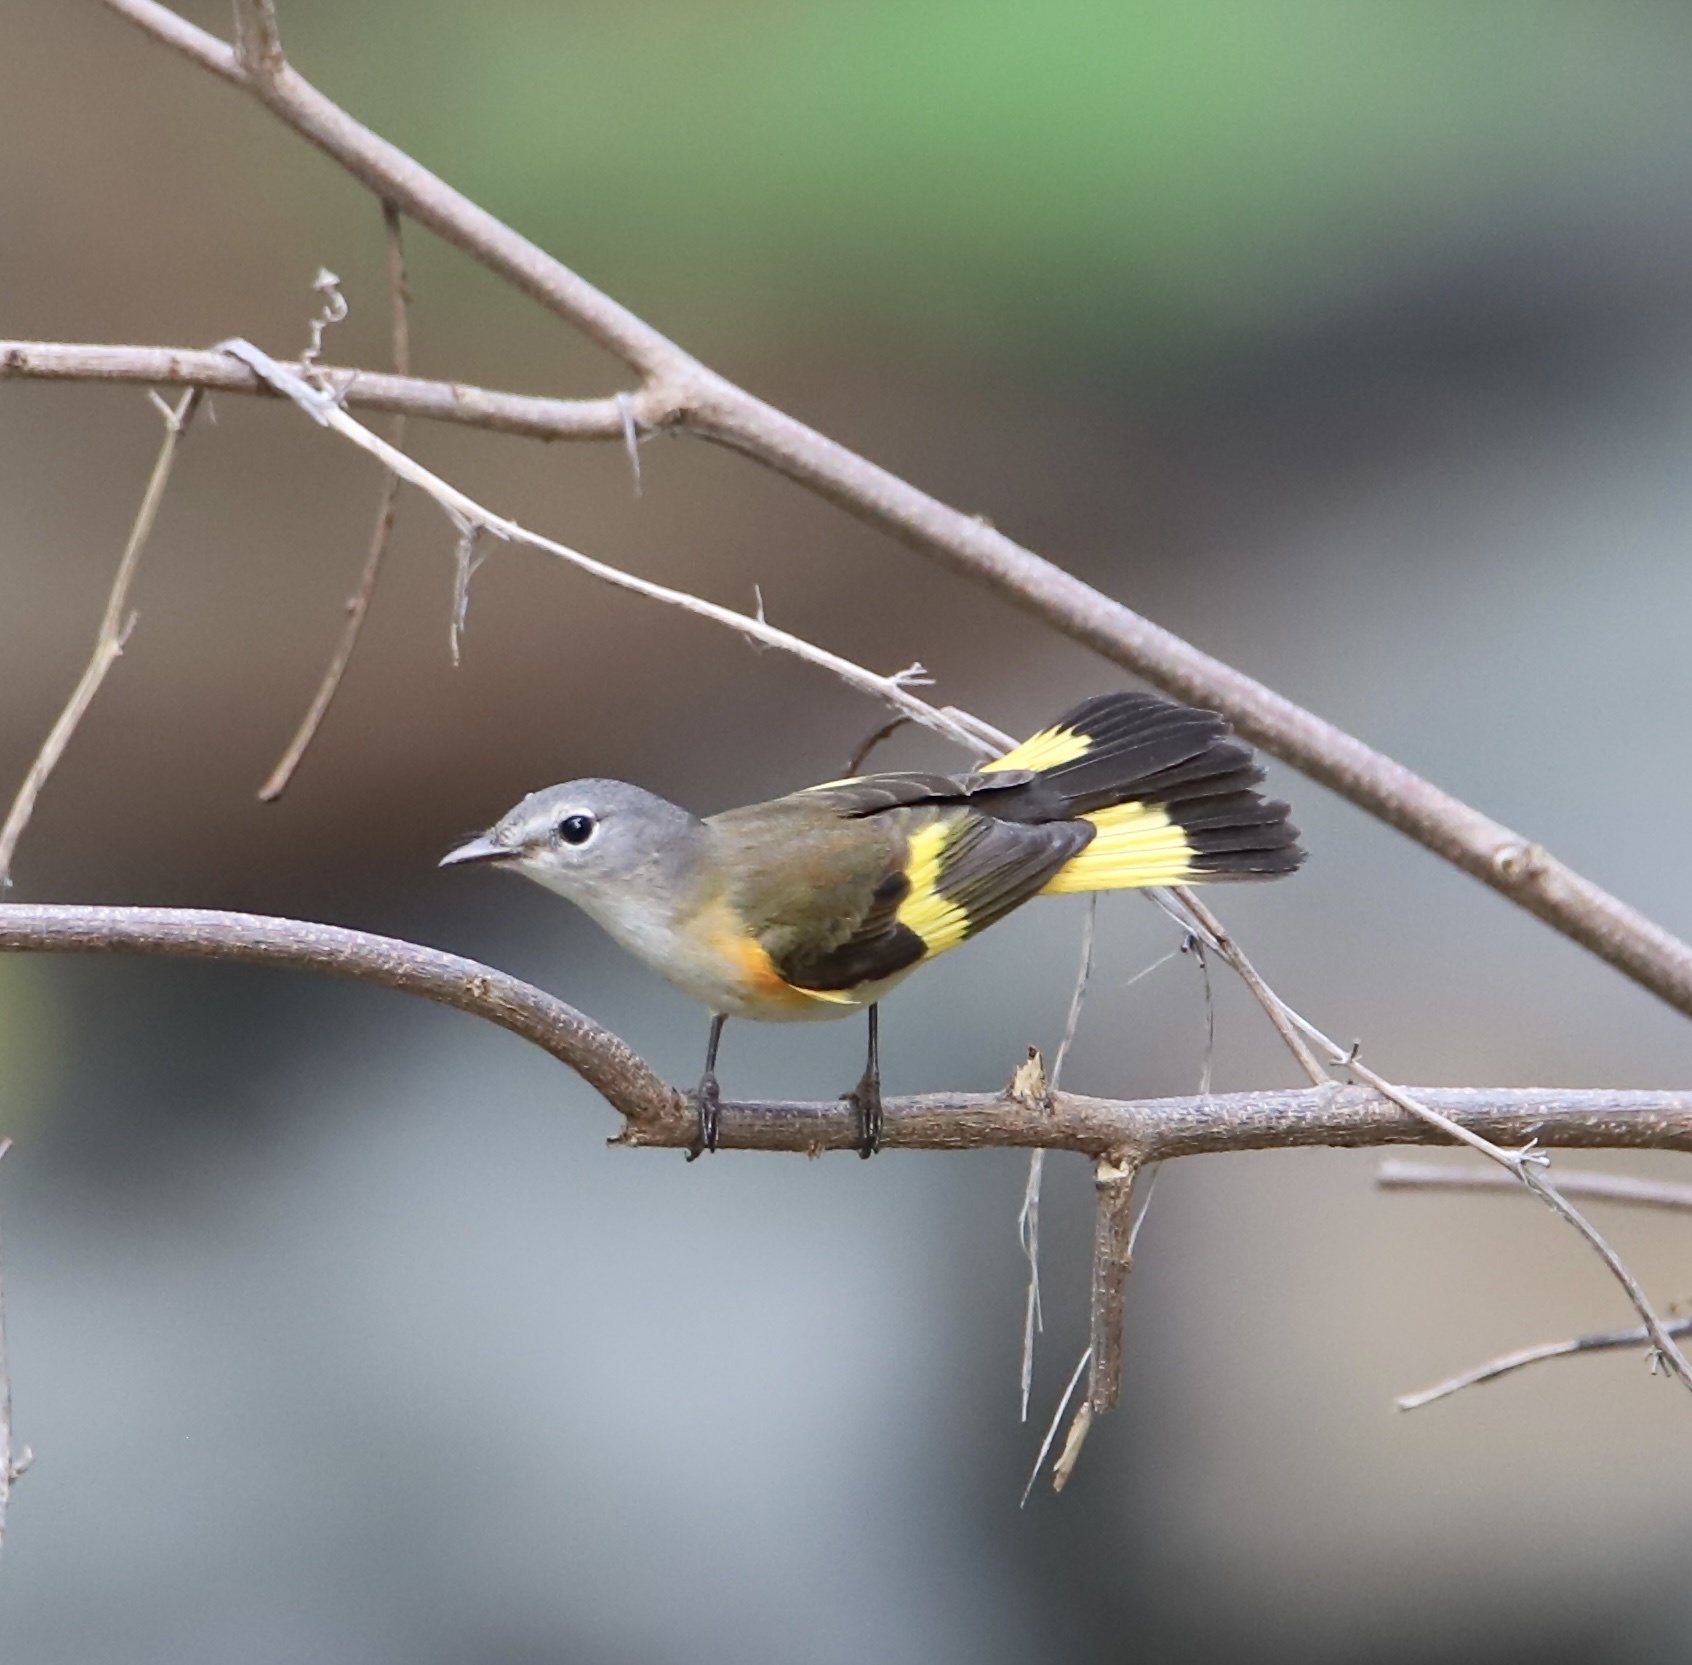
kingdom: Animalia
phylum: Chordata
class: Aves
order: Passeriformes
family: Parulidae
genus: Setophaga
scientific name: Setophaga ruticilla
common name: American redstart
